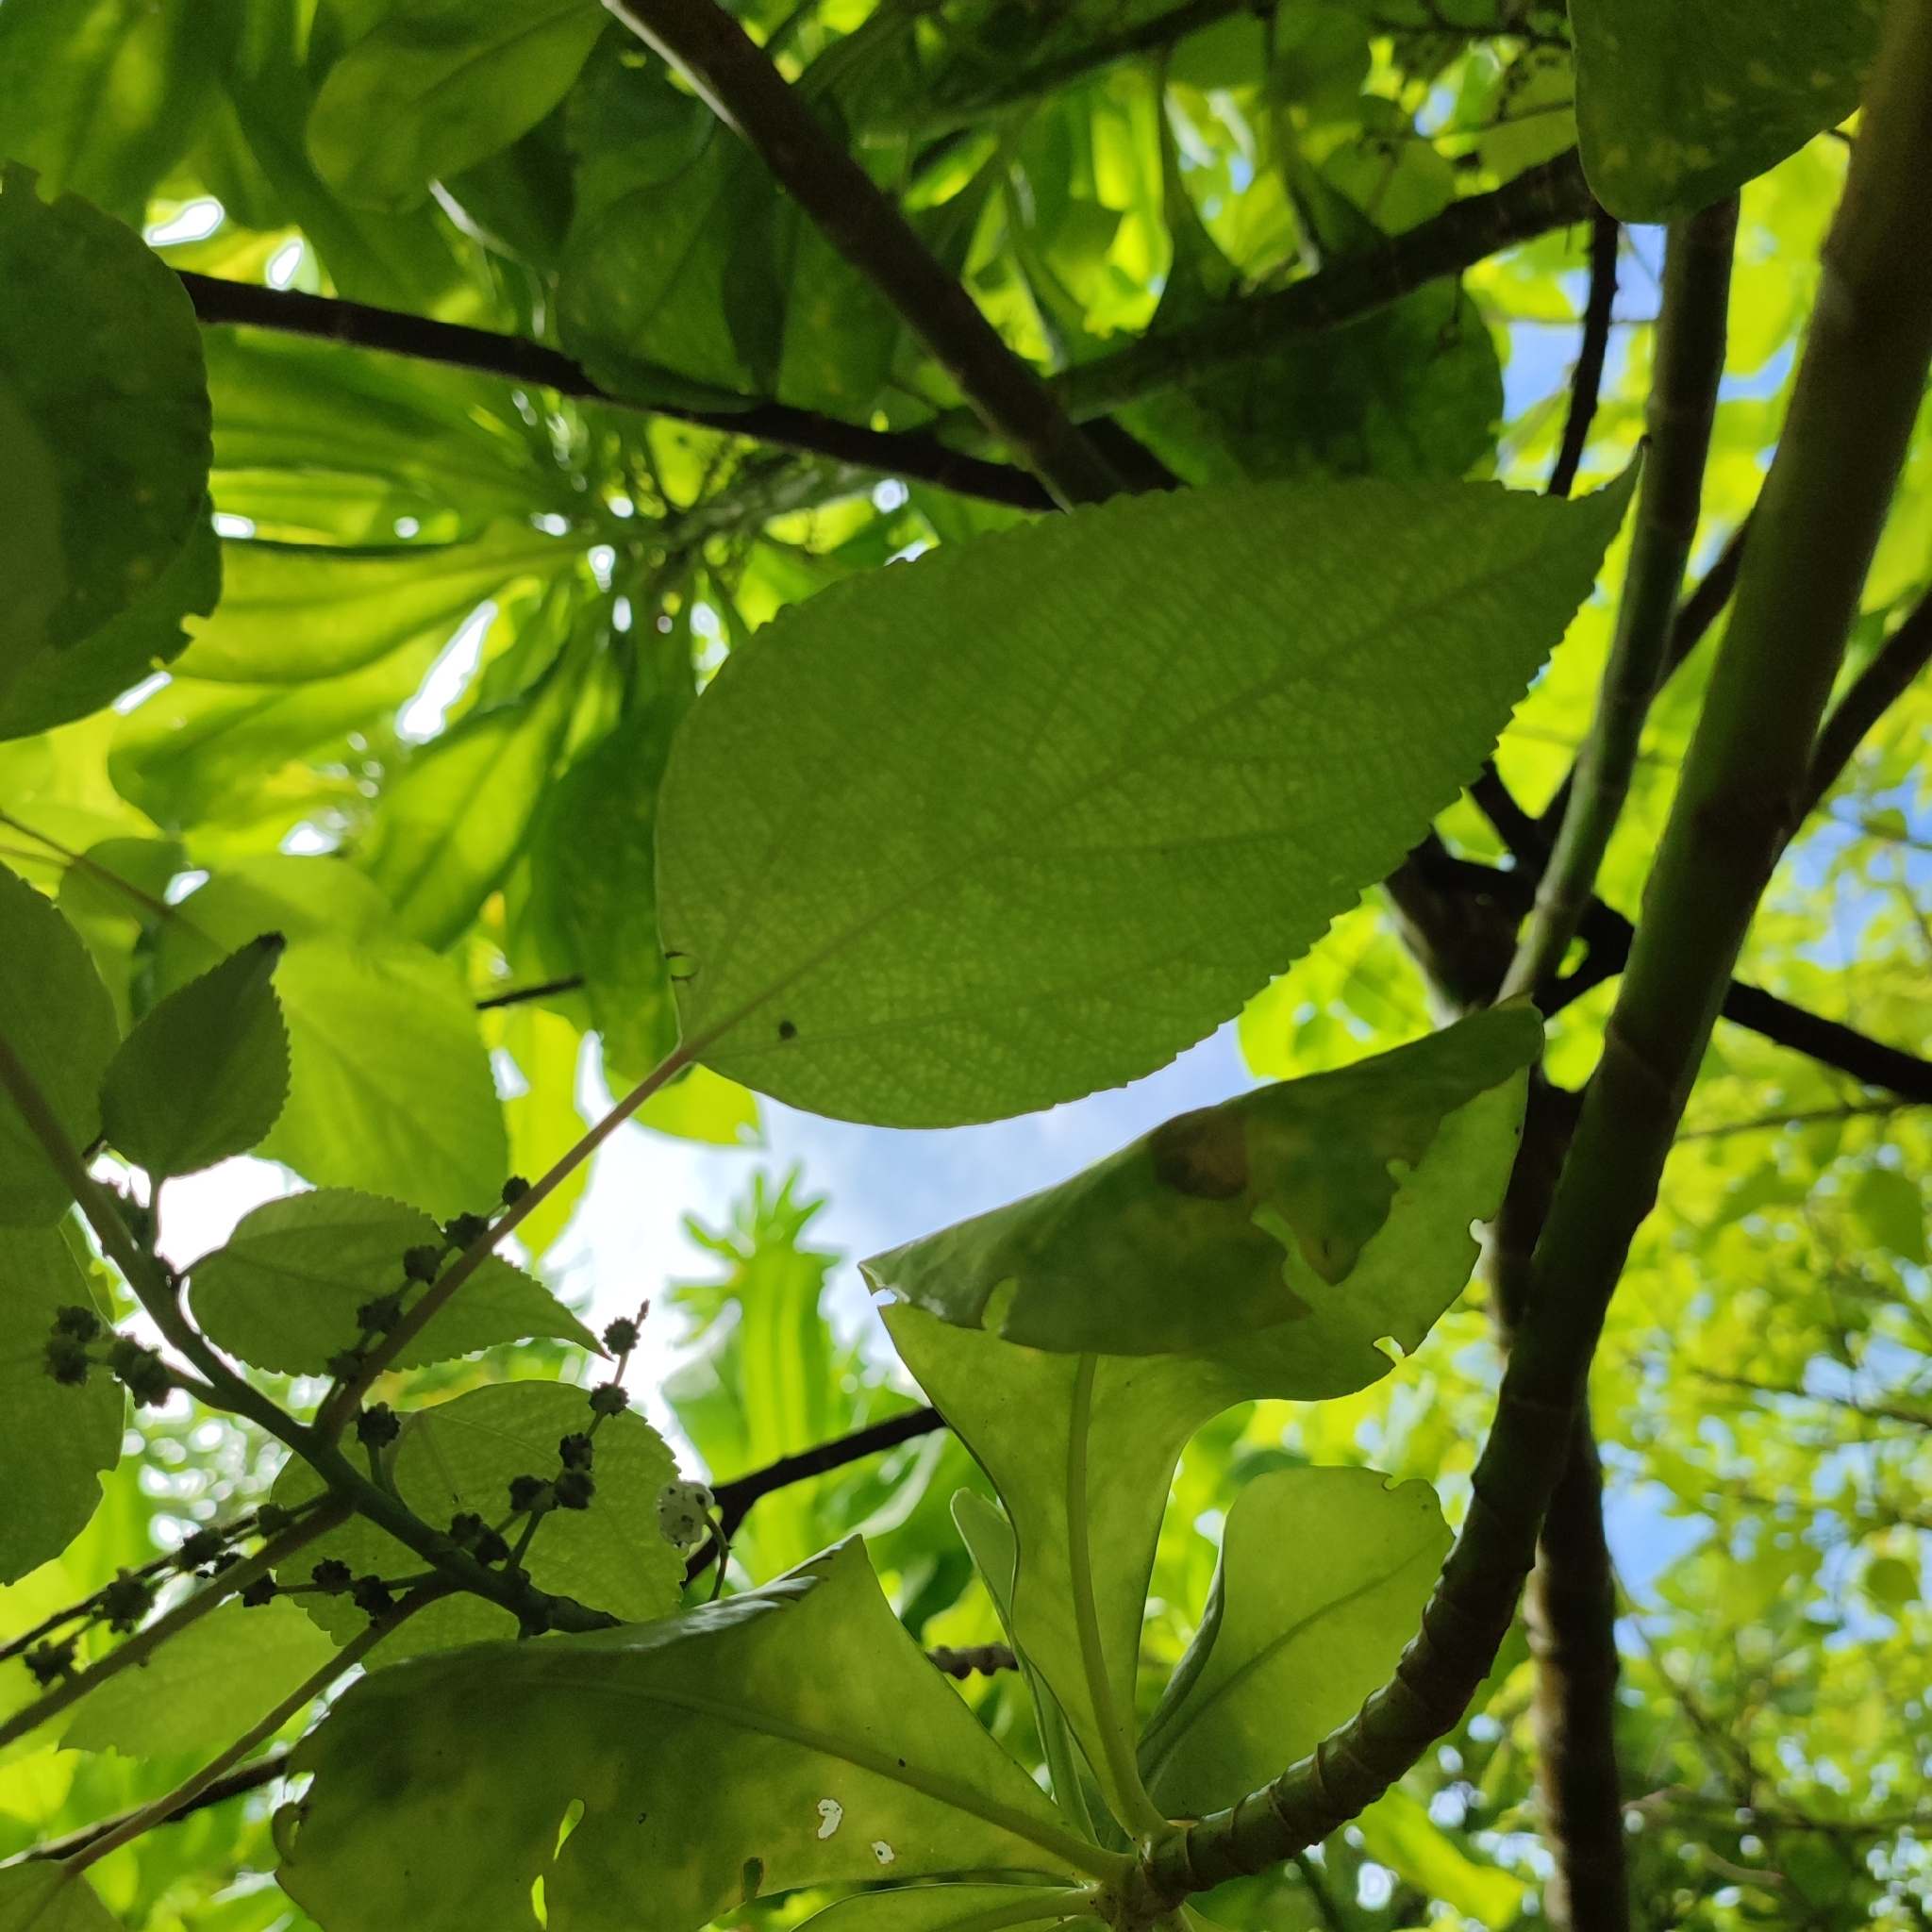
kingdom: Plantae
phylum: Tracheophyta
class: Magnoliopsida
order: Rosales
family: Urticaceae
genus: Pipturus
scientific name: Pipturus argenteus
